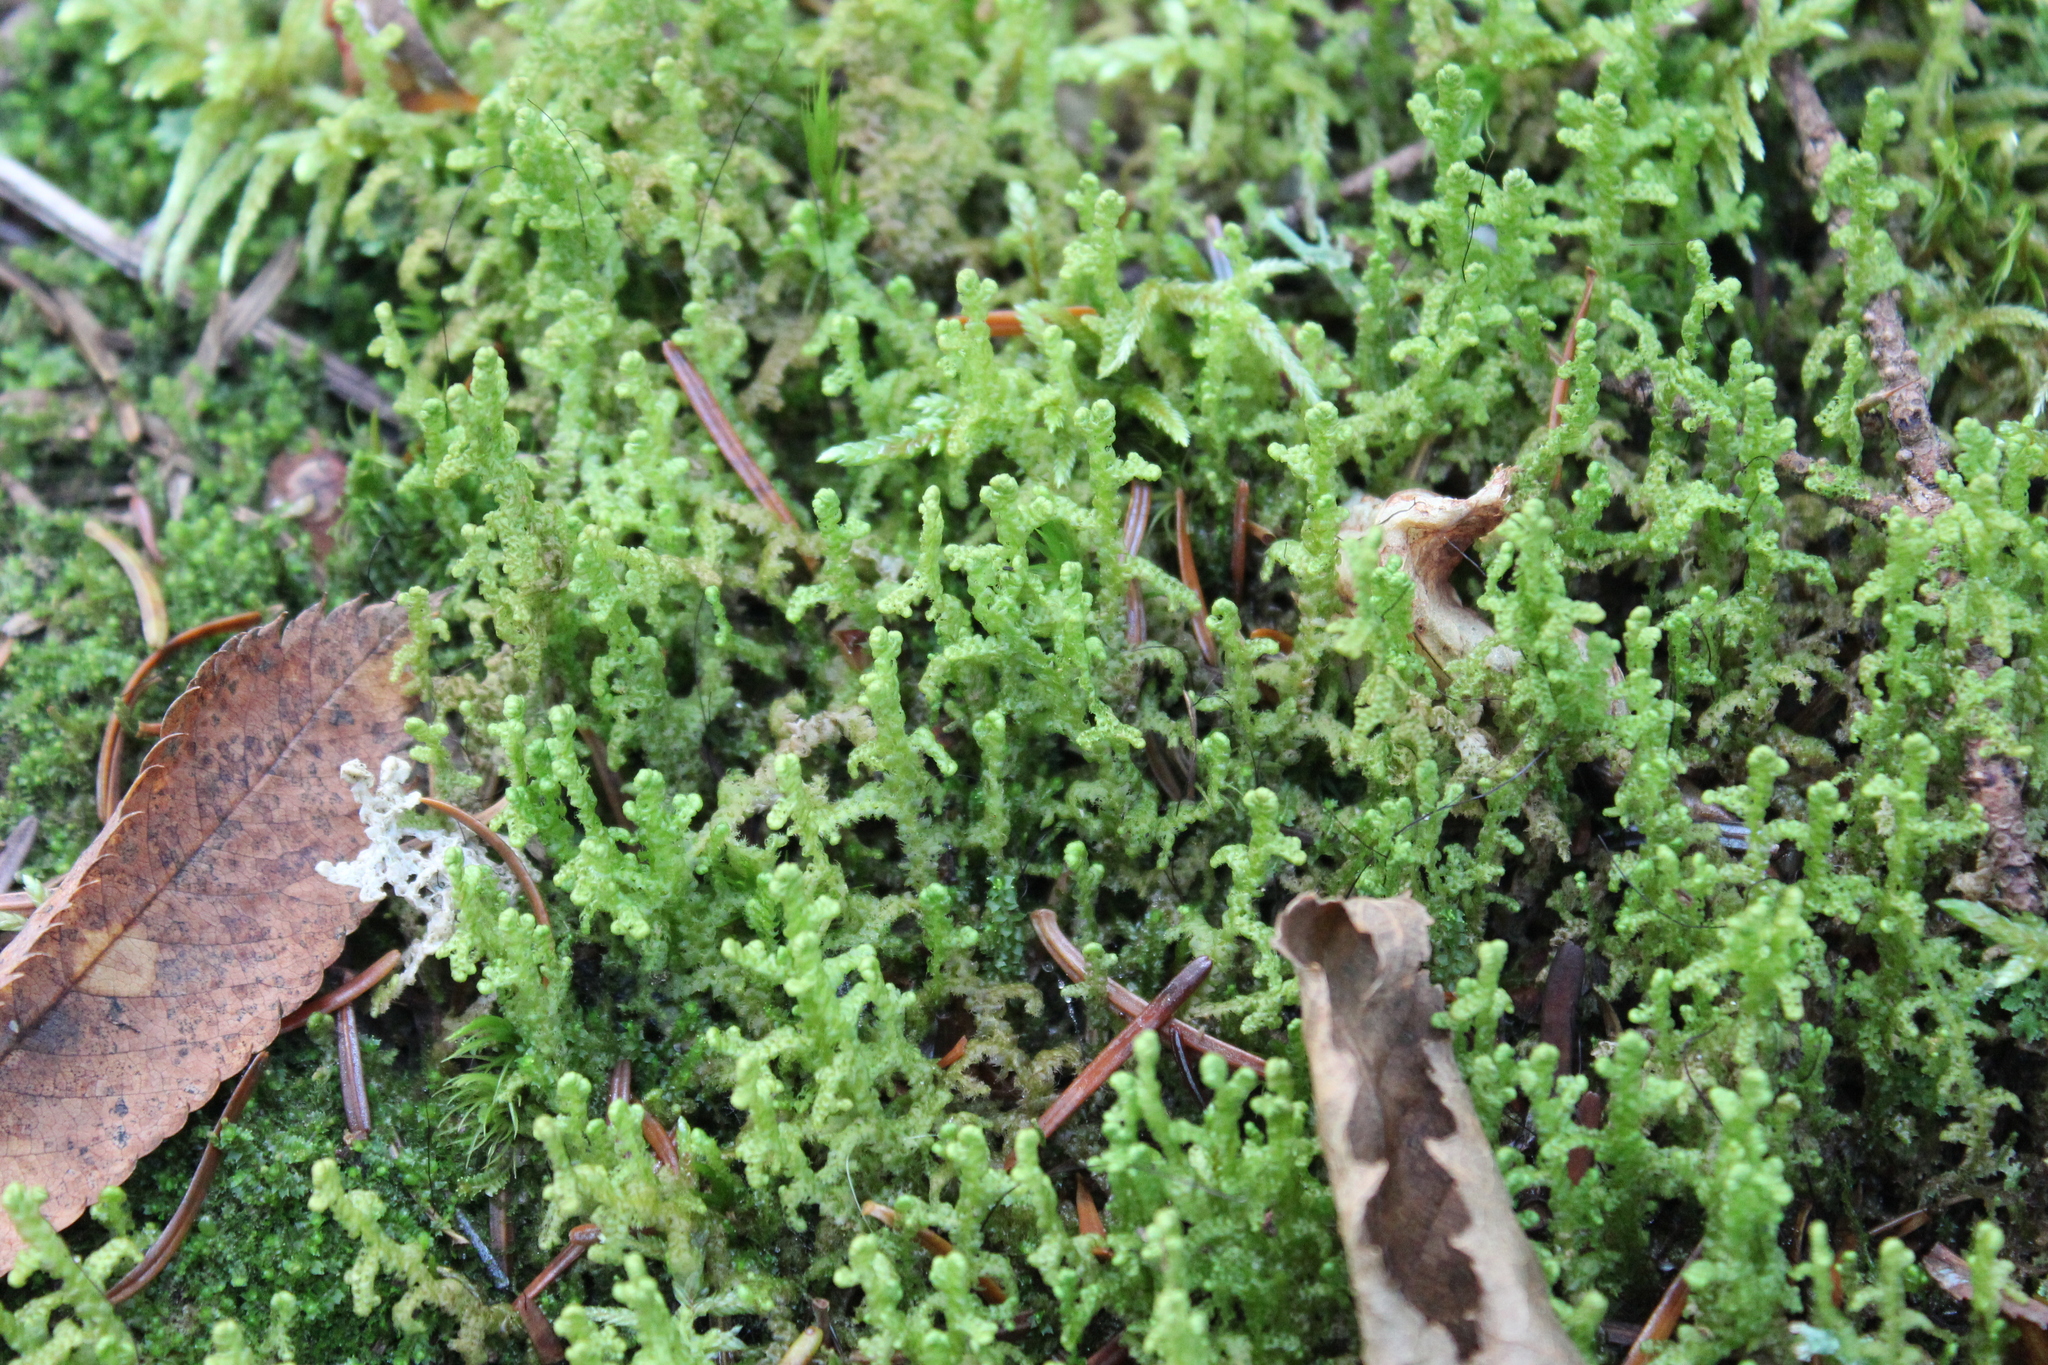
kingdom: Plantae
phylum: Marchantiophyta
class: Jungermanniopsida
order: Ptilidiales
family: Ptilidiaceae
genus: Ptilidium
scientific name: Ptilidium ciliare
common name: Ciliate fringewort
